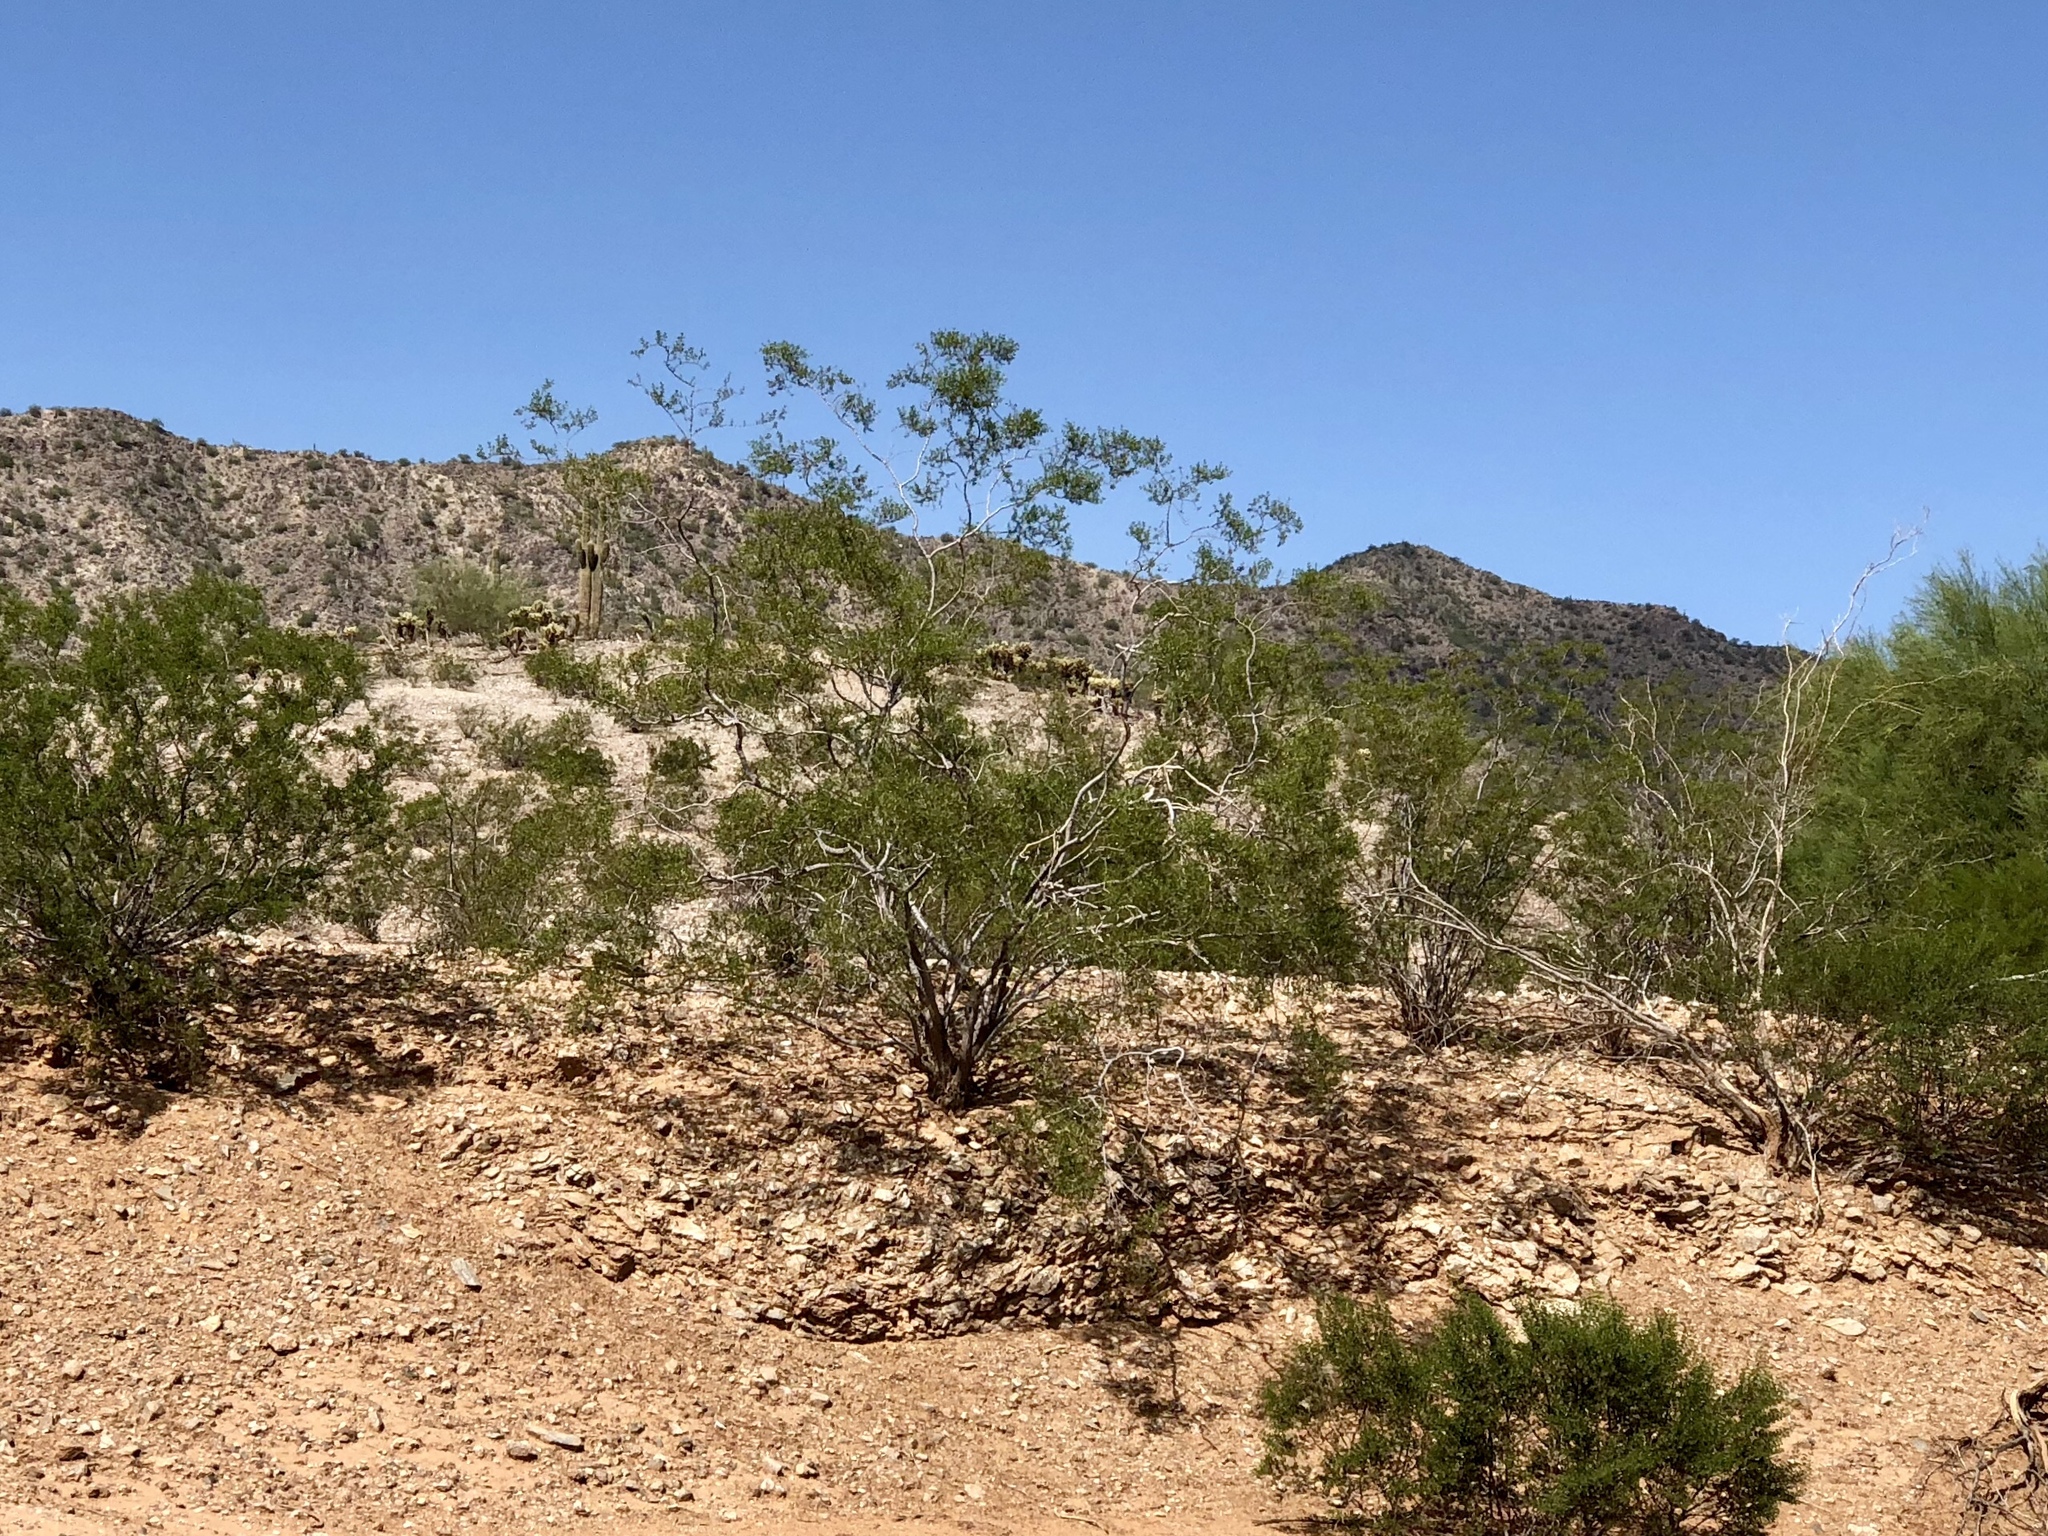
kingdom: Plantae
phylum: Tracheophyta
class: Magnoliopsida
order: Zygophyllales
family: Zygophyllaceae
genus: Larrea
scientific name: Larrea tridentata
